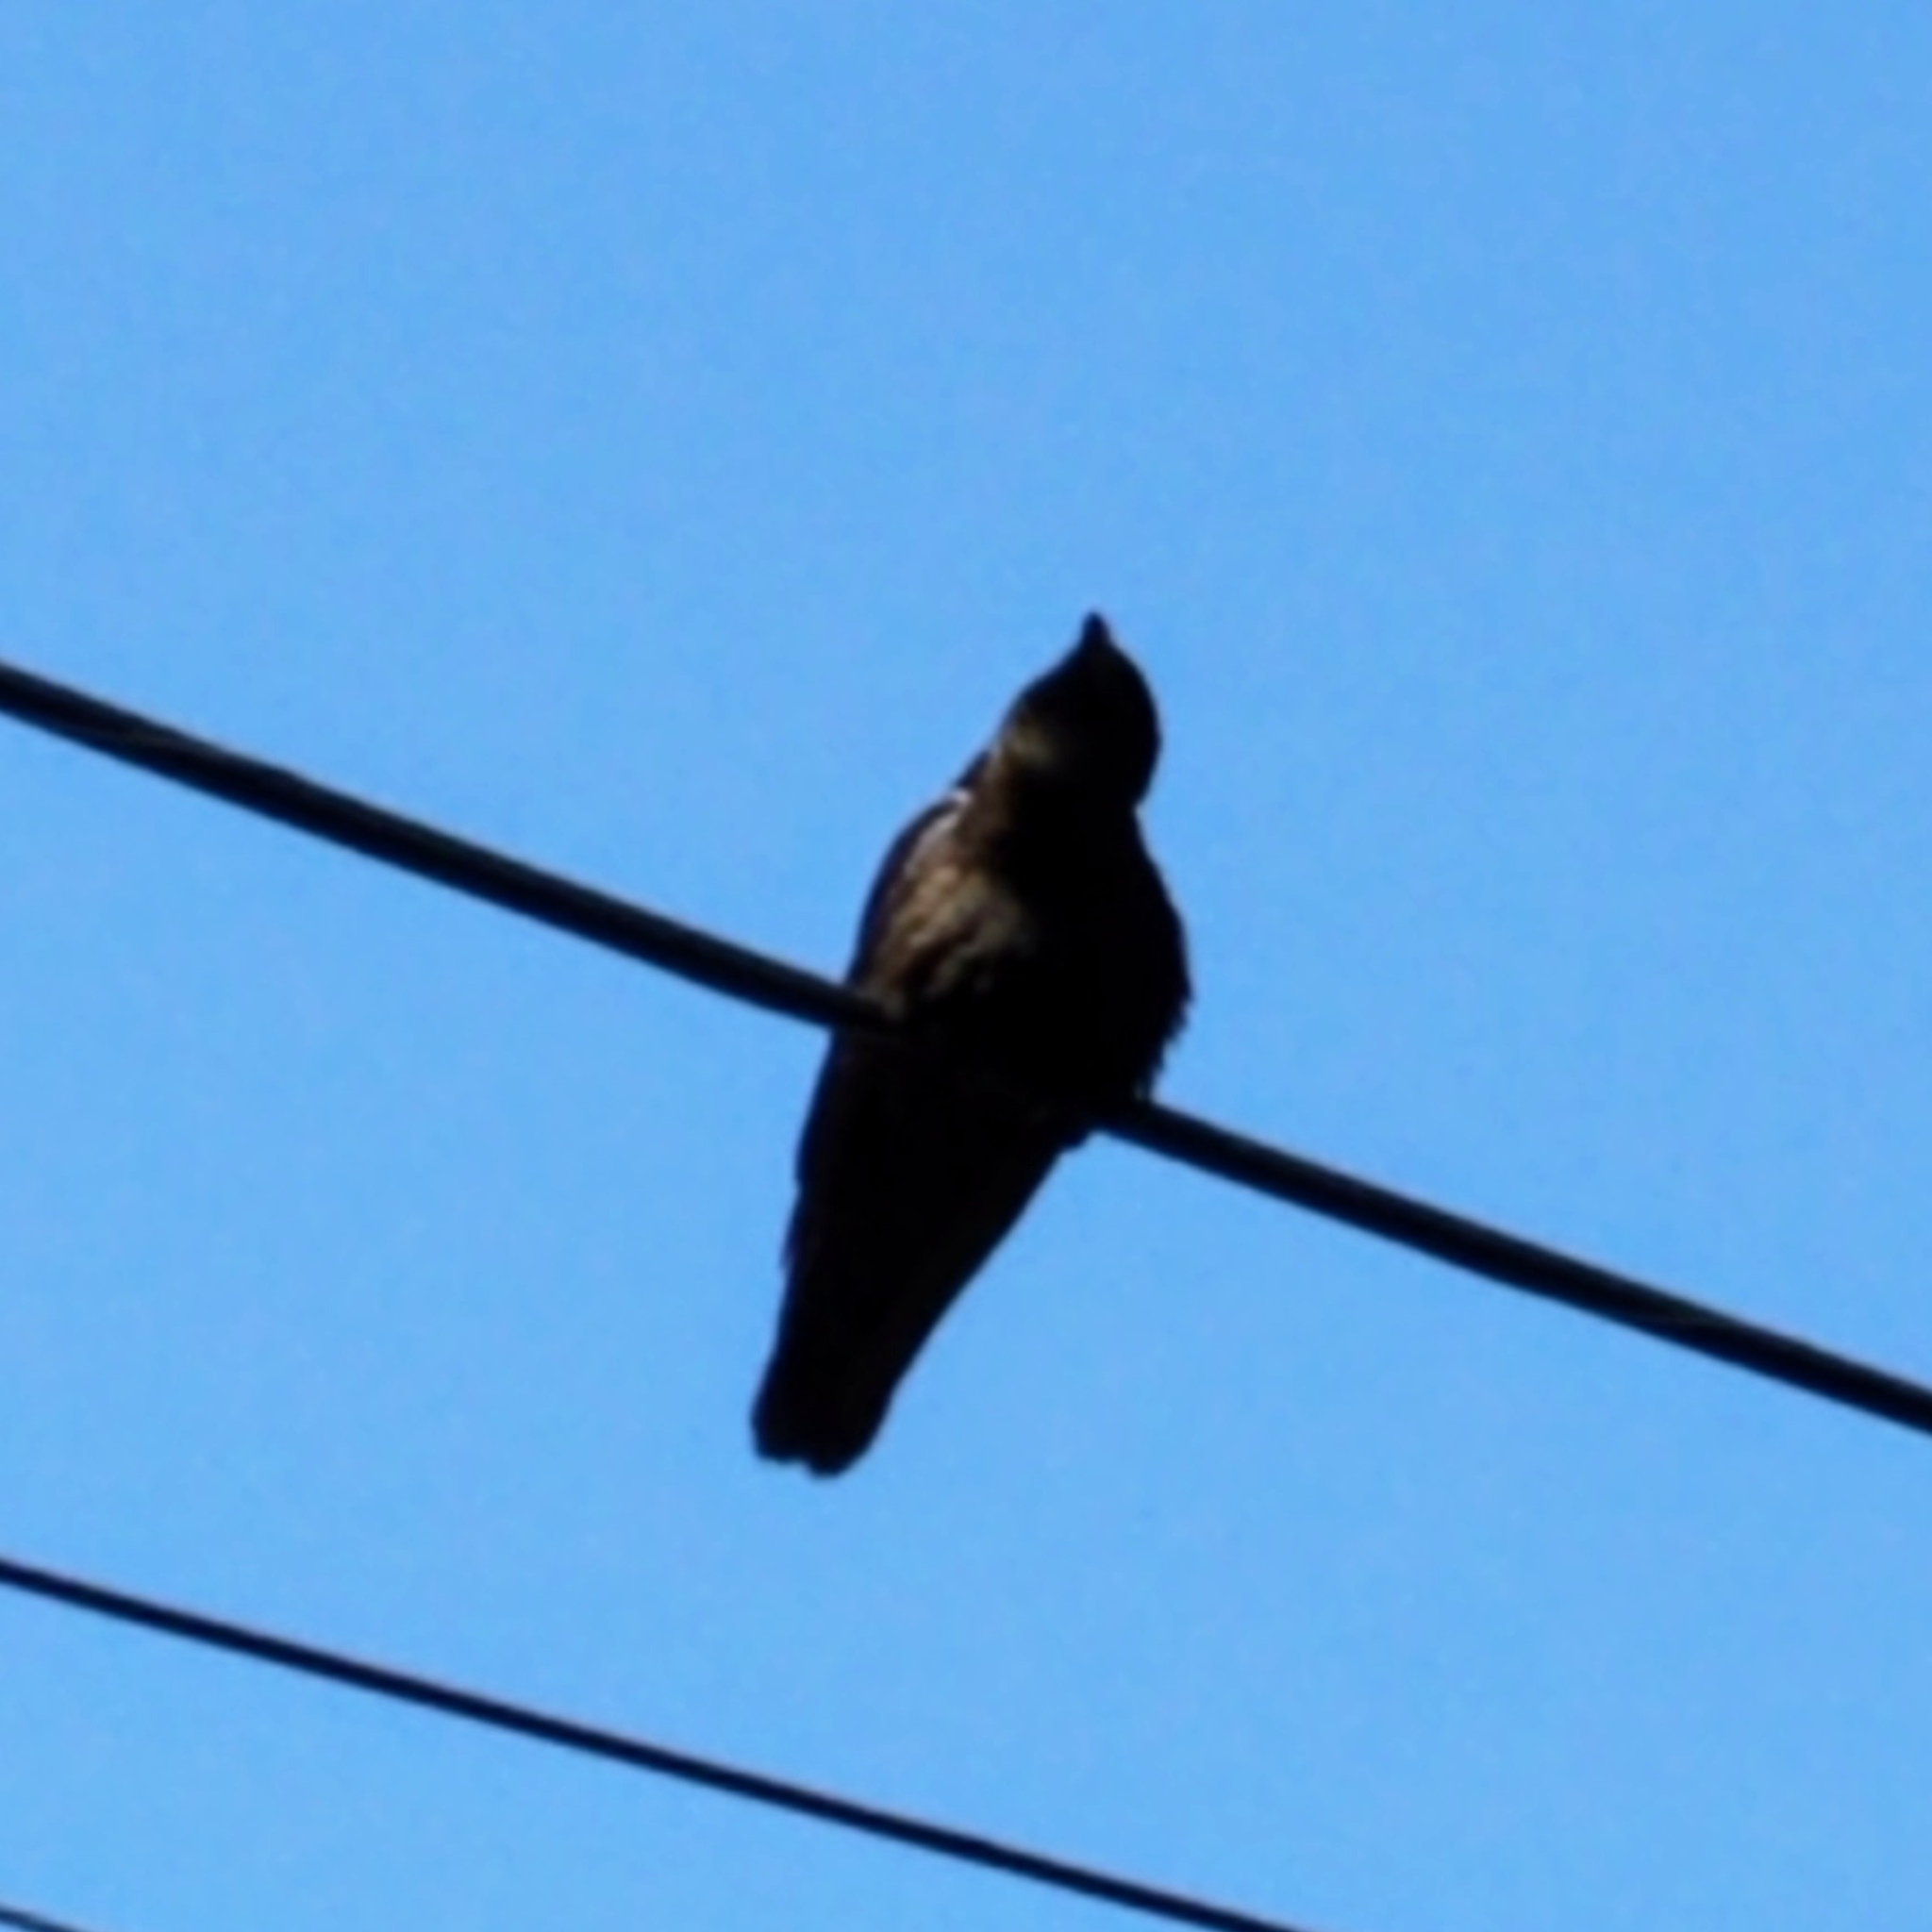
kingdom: Animalia
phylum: Chordata
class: Aves
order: Passeriformes
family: Corvidae
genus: Corvus
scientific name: Corvus brachyrhynchos
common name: American crow
